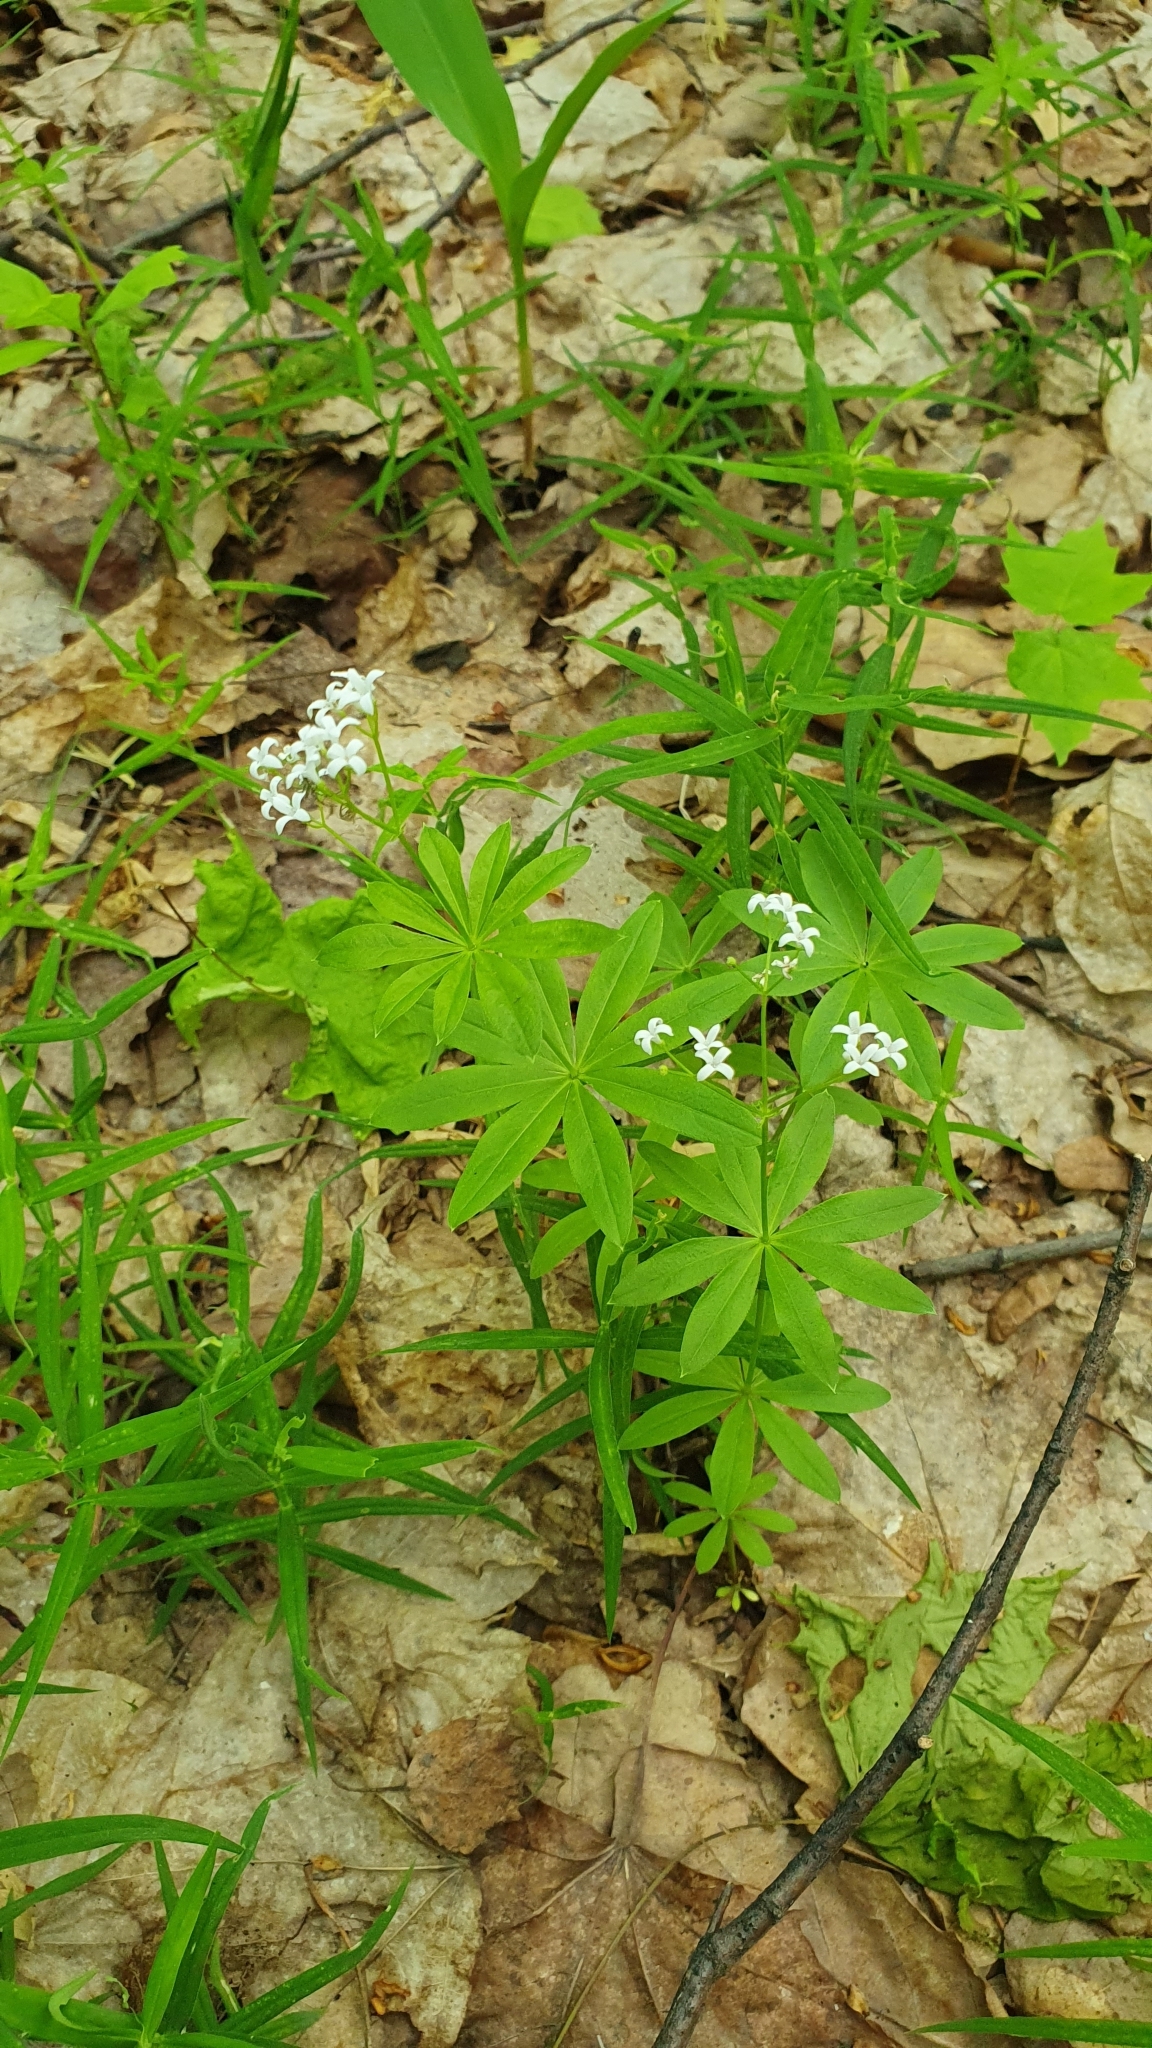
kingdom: Plantae
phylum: Tracheophyta
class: Magnoliopsida
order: Gentianales
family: Rubiaceae
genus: Galium
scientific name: Galium odoratum
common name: Sweet woodruff
